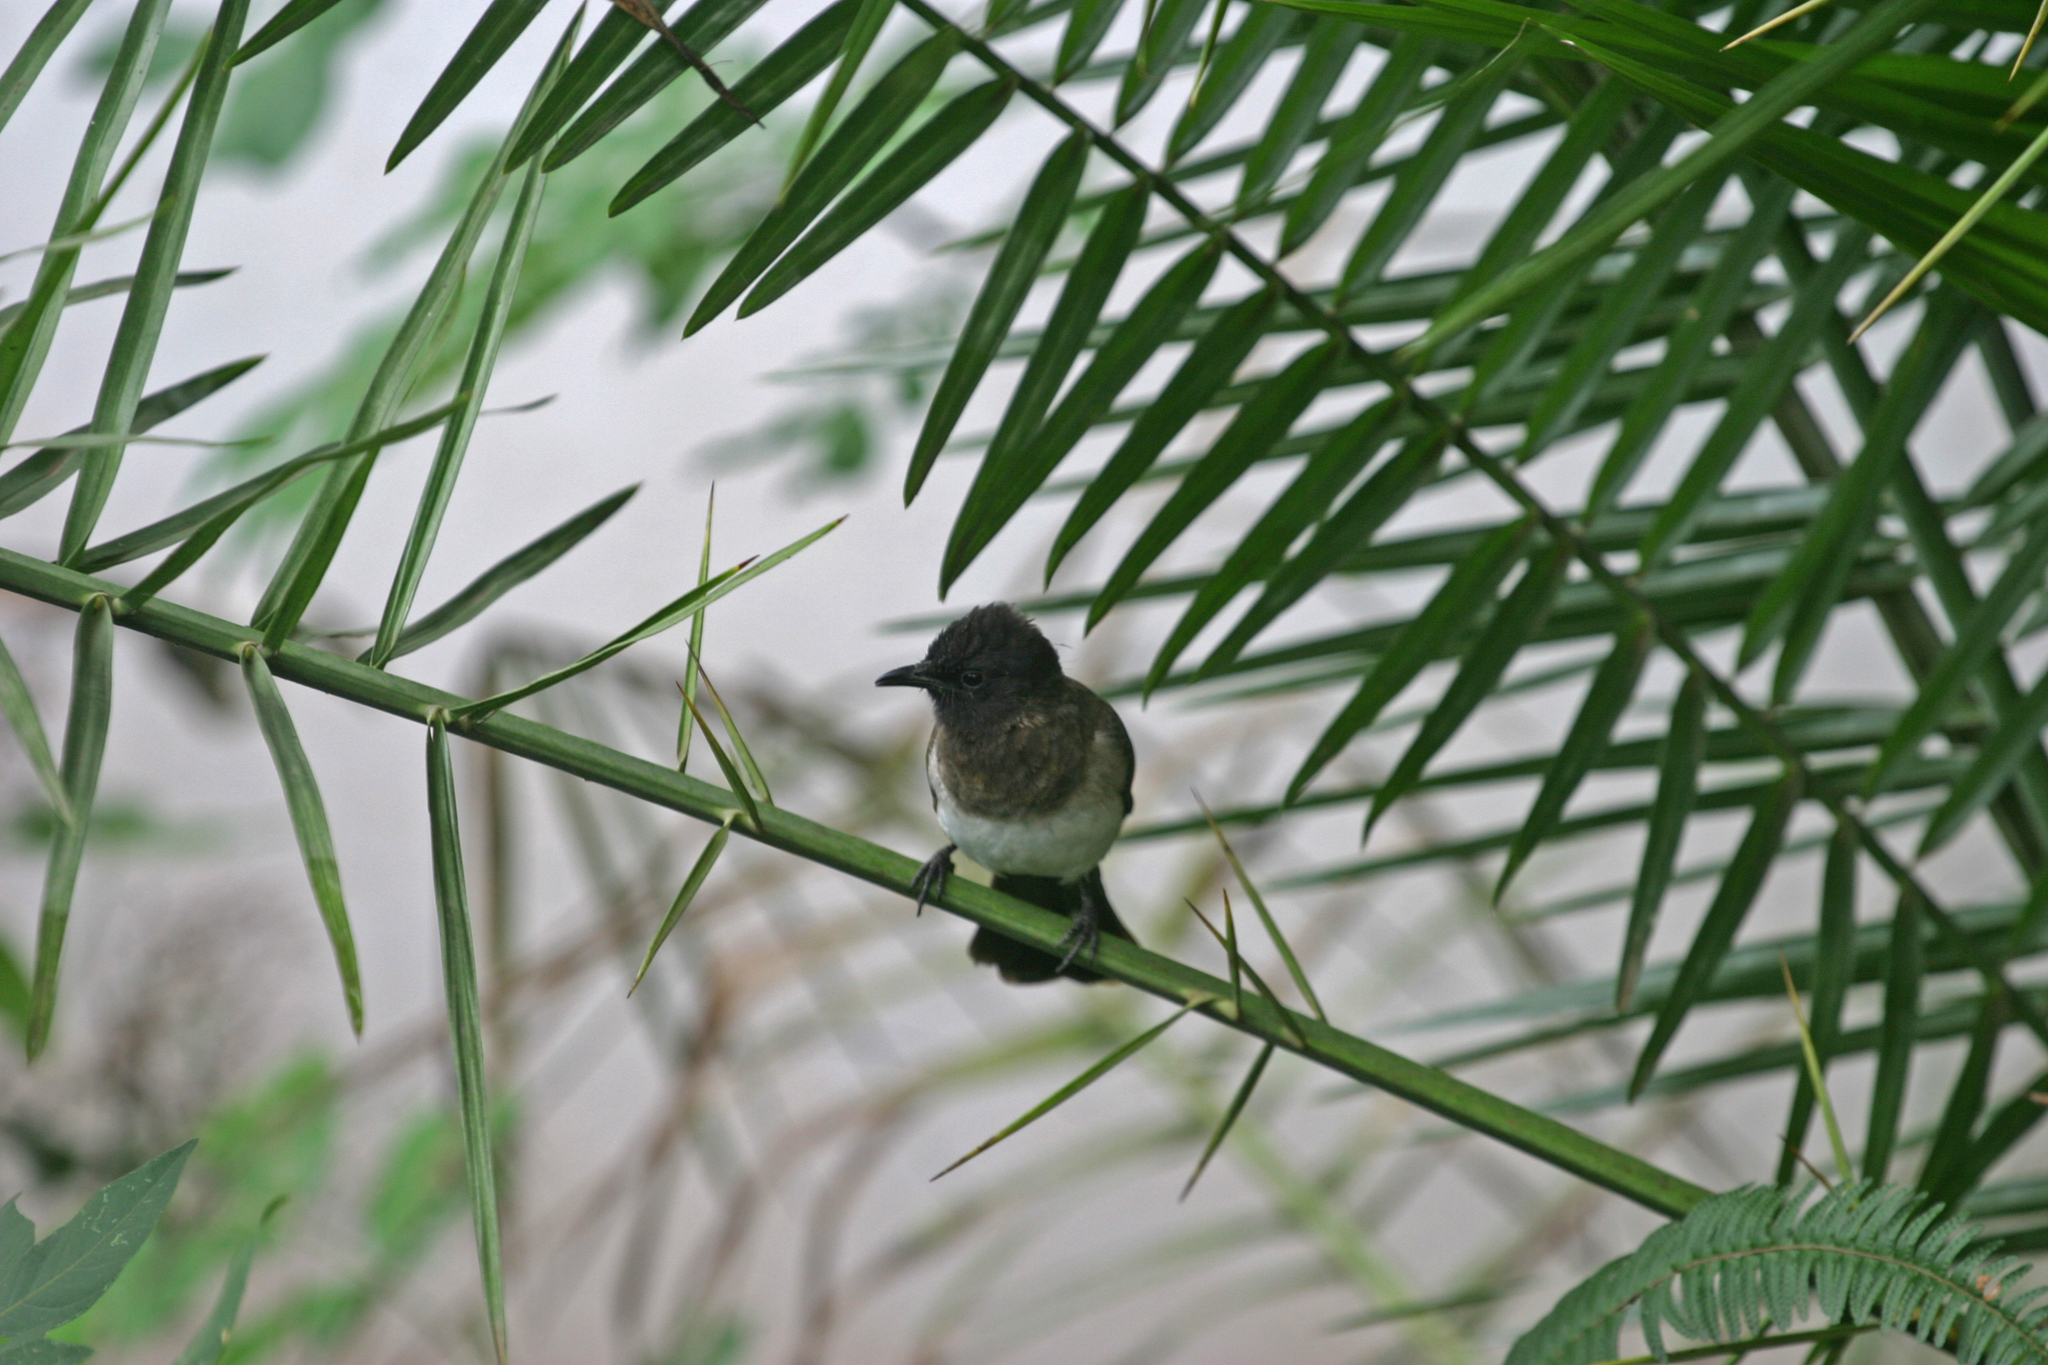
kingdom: Animalia
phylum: Chordata
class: Aves
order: Passeriformes
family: Pycnonotidae
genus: Pycnonotus
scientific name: Pycnonotus barbatus
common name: Common bulbul
